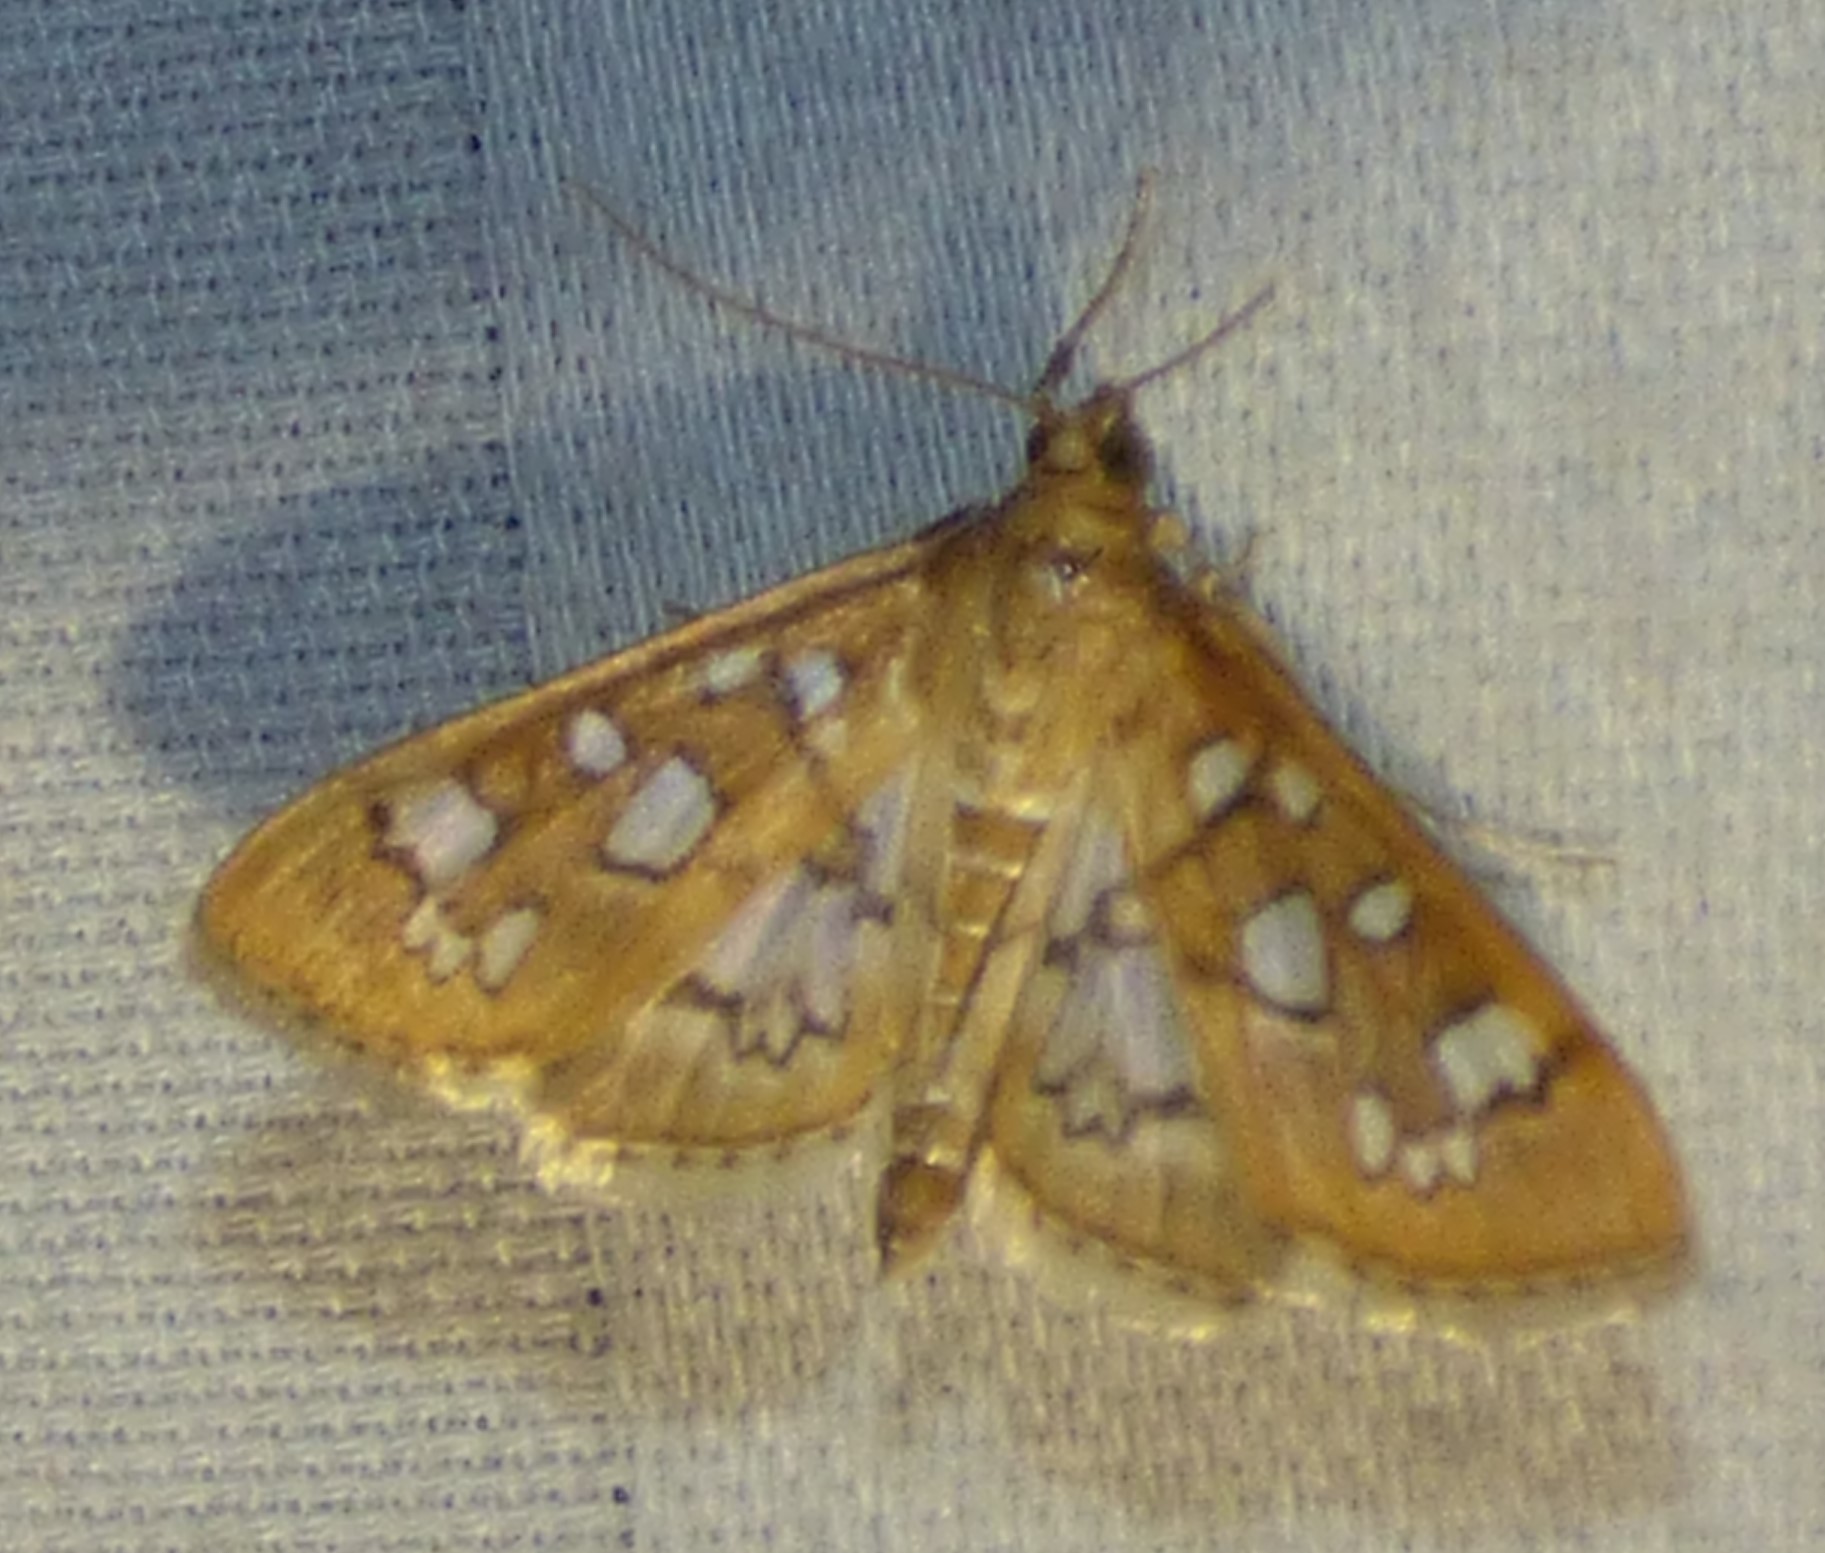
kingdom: Animalia
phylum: Arthropoda
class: Insecta
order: Lepidoptera
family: Crambidae
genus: Samea
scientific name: Samea baccatalis
